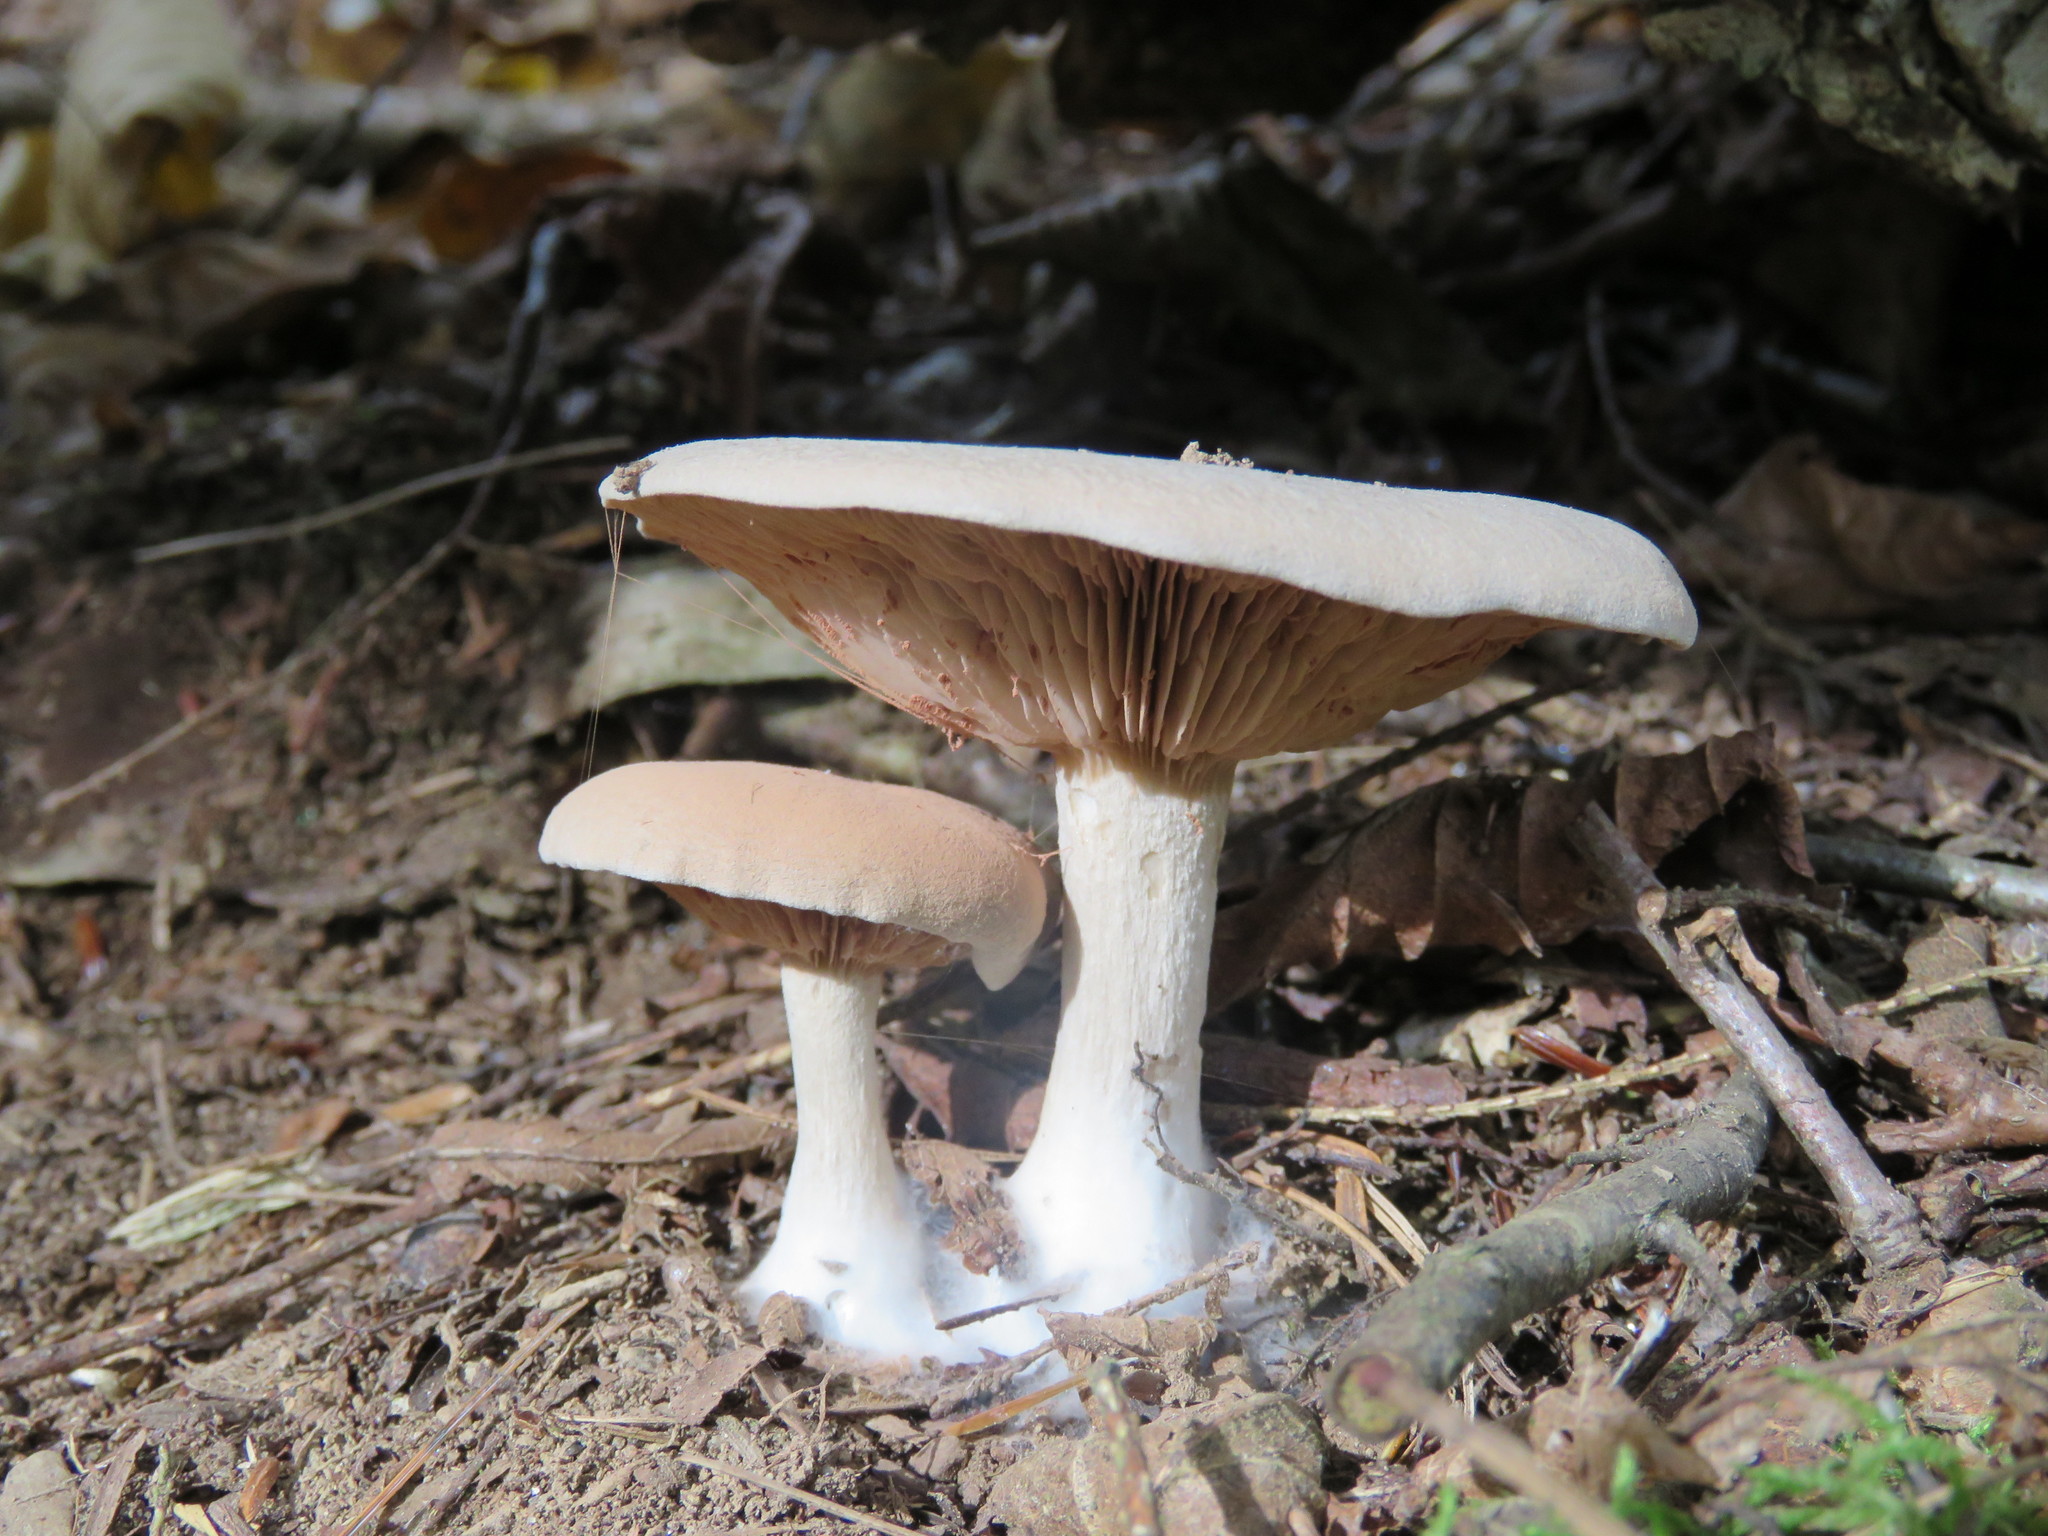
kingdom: Fungi
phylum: Basidiomycota
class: Agaricomycetes
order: Agaricales
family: Entolomataceae
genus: Entoloma
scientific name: Entoloma abortivum
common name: Aborted entoloma
